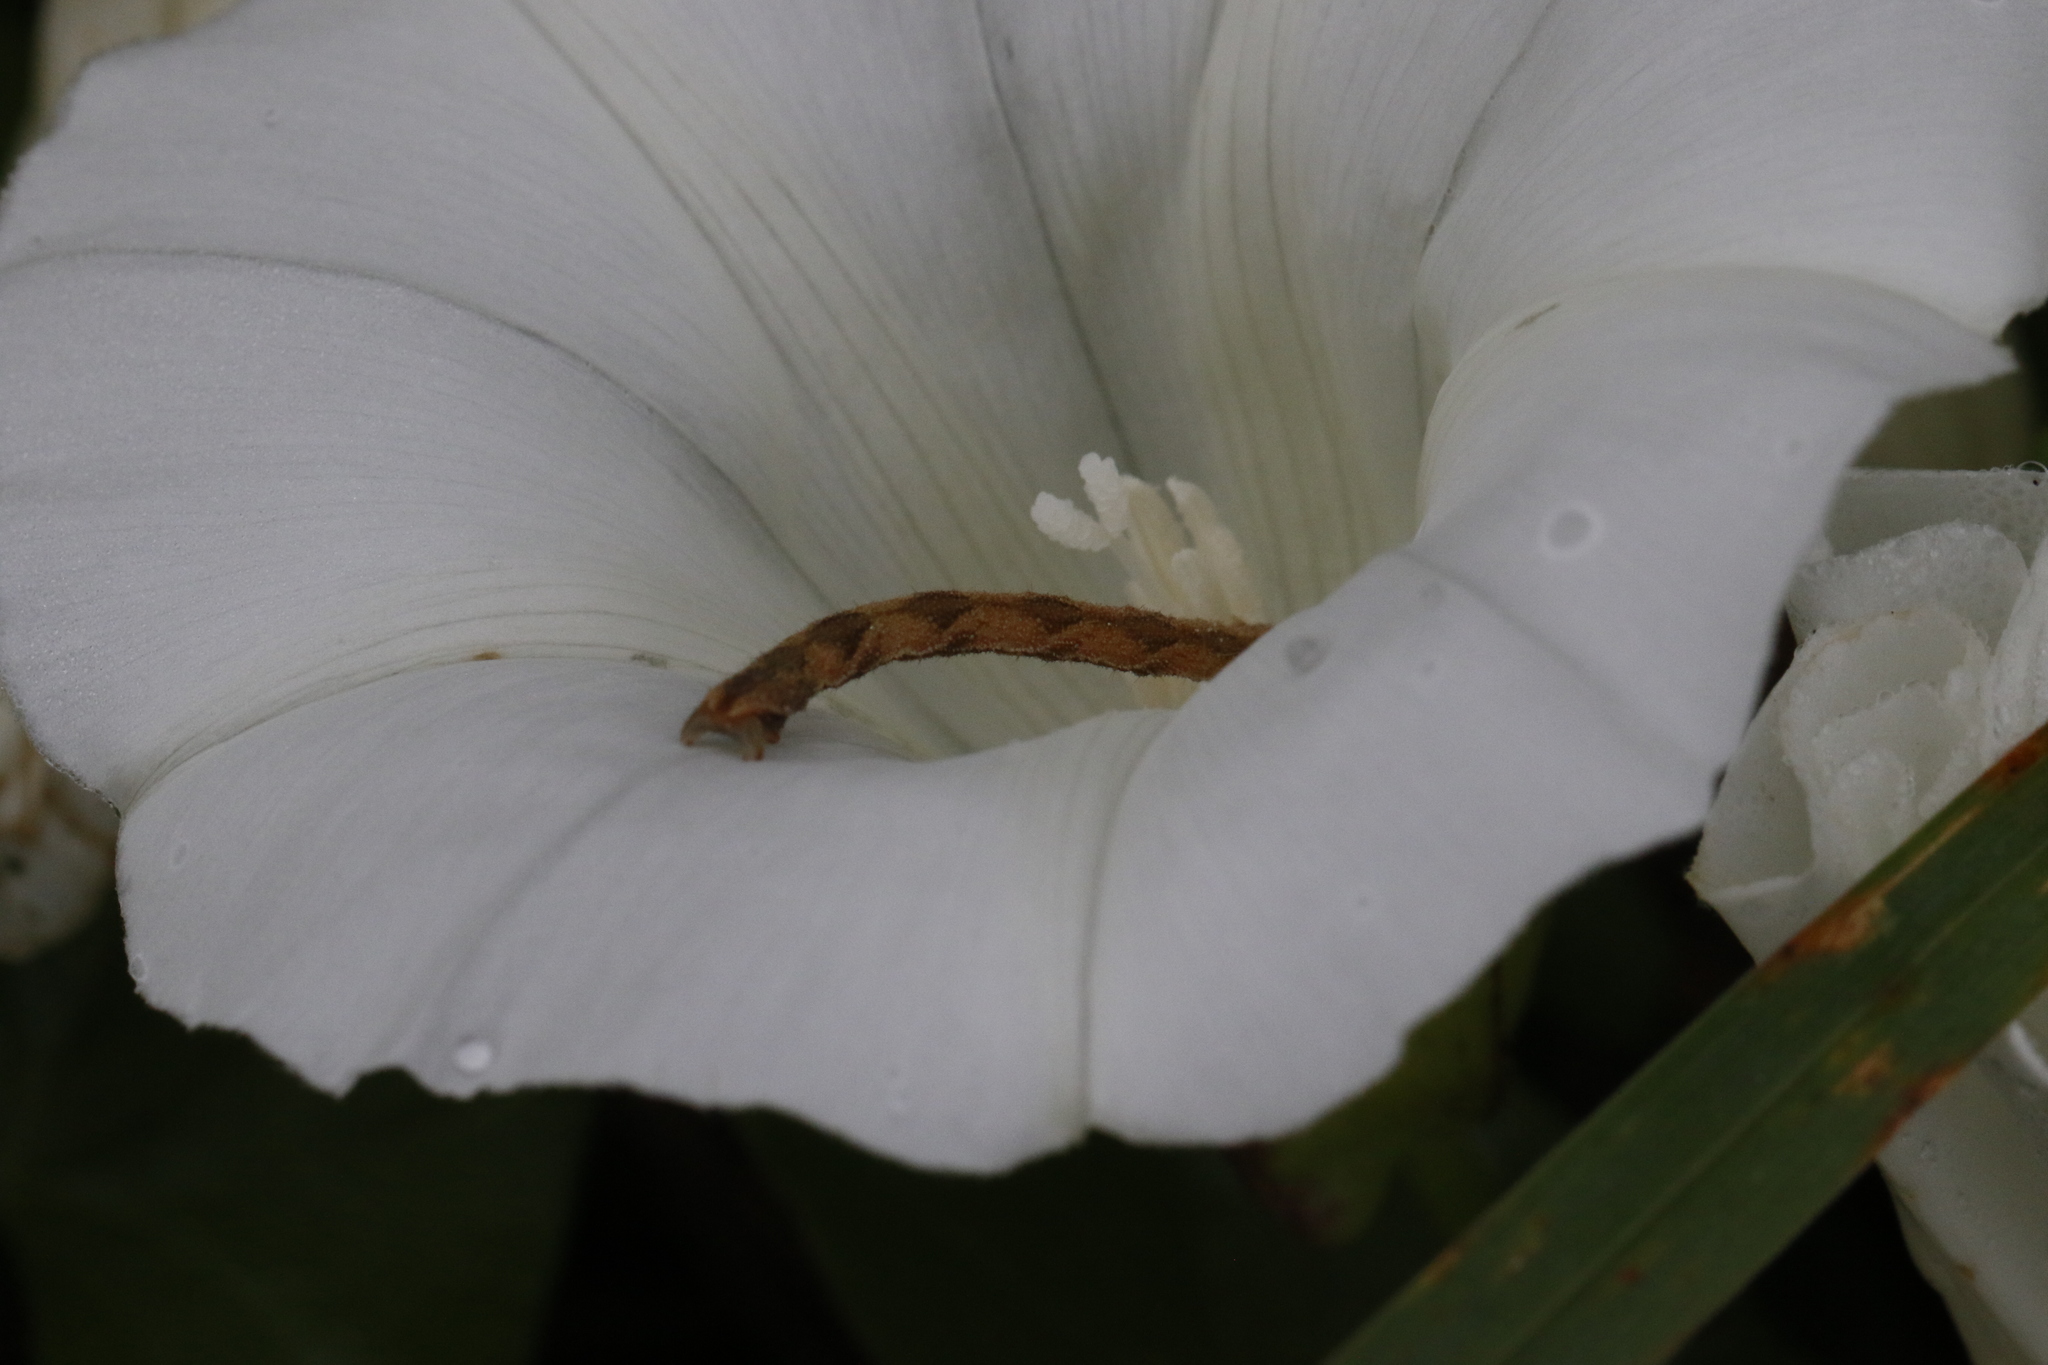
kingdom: Animalia
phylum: Arthropoda
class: Insecta
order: Lepidoptera
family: Geometridae
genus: Eupithecia
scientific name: Eupithecia subfuscata
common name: Grey pug
